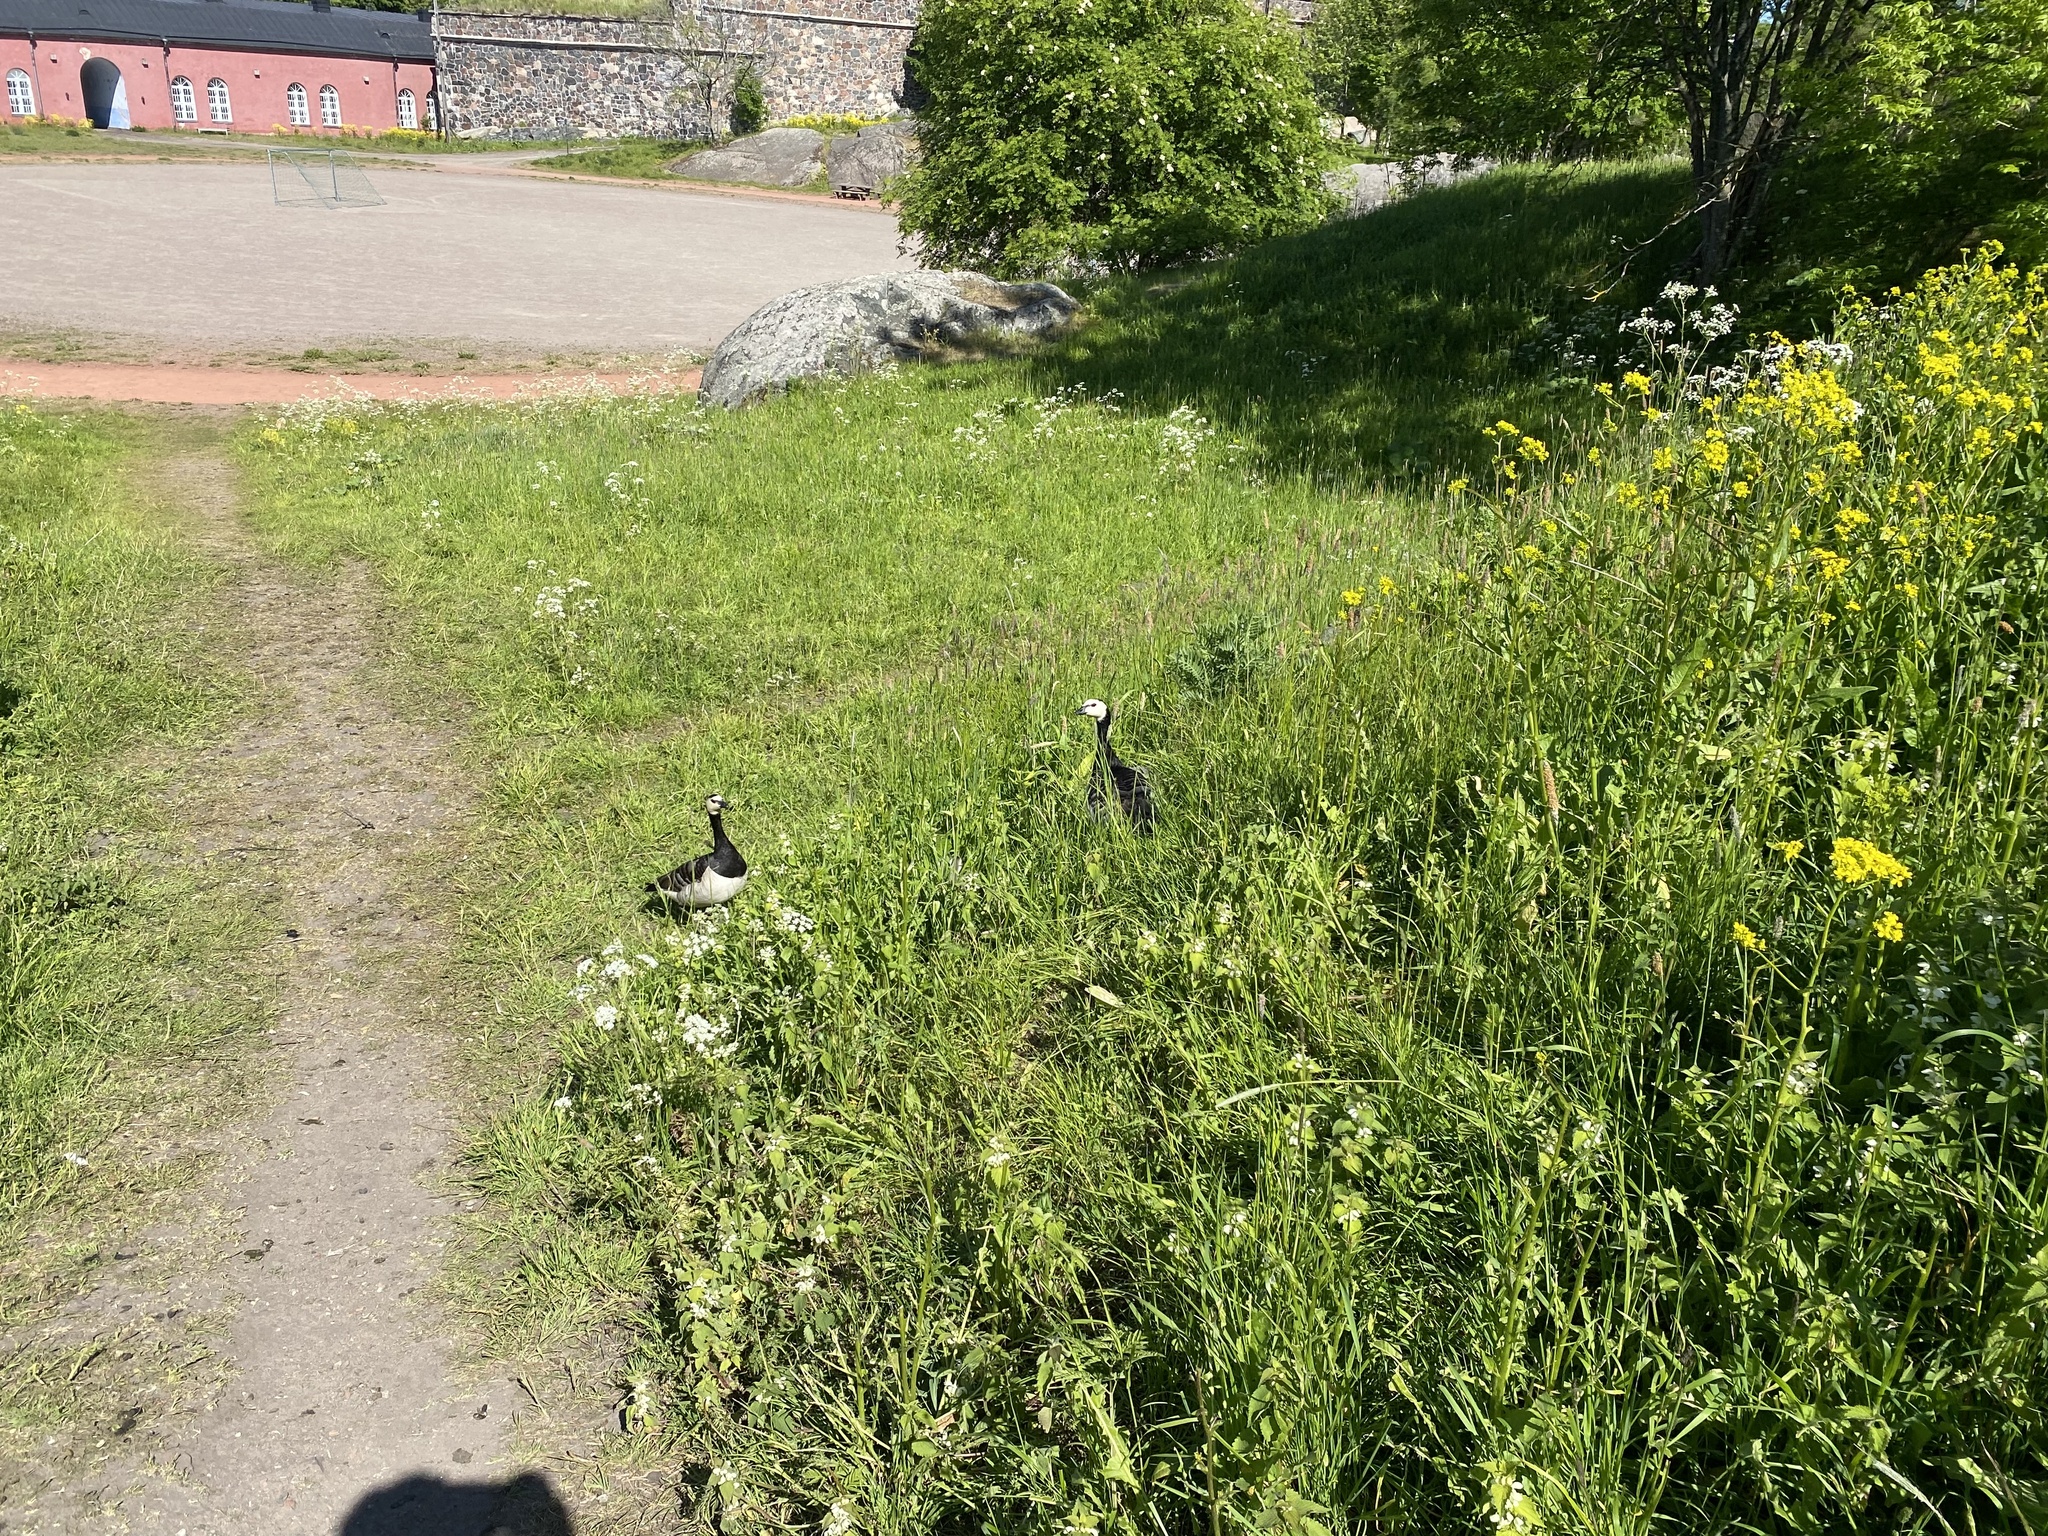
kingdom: Animalia
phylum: Chordata
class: Aves
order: Anseriformes
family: Anatidae
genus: Branta
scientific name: Branta leucopsis
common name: Barnacle goose
